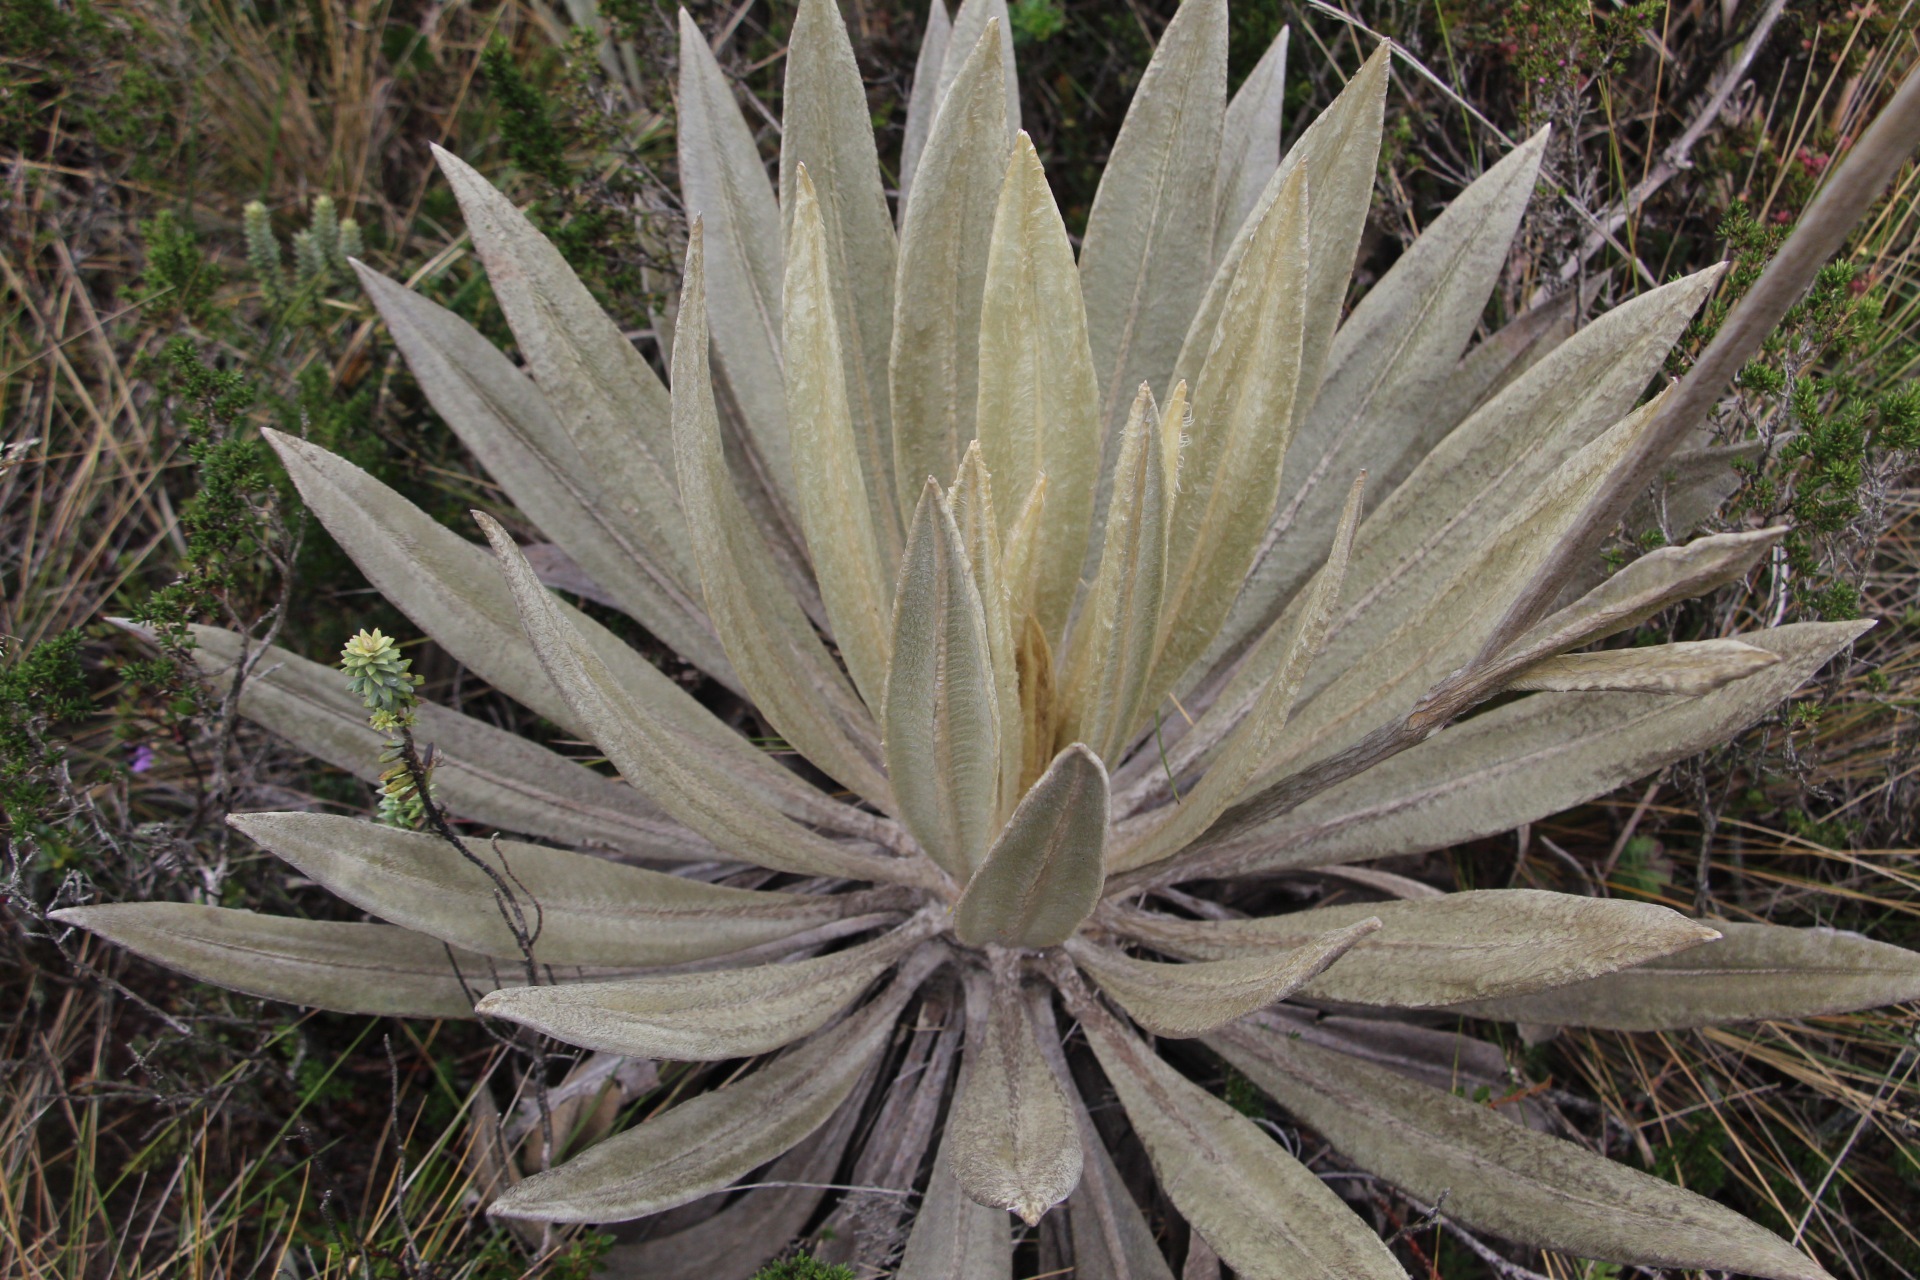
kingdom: Plantae
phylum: Tracheophyta
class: Magnoliopsida
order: Asterales
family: Asteraceae
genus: Espeletia
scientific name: Espeletia grandiflora
